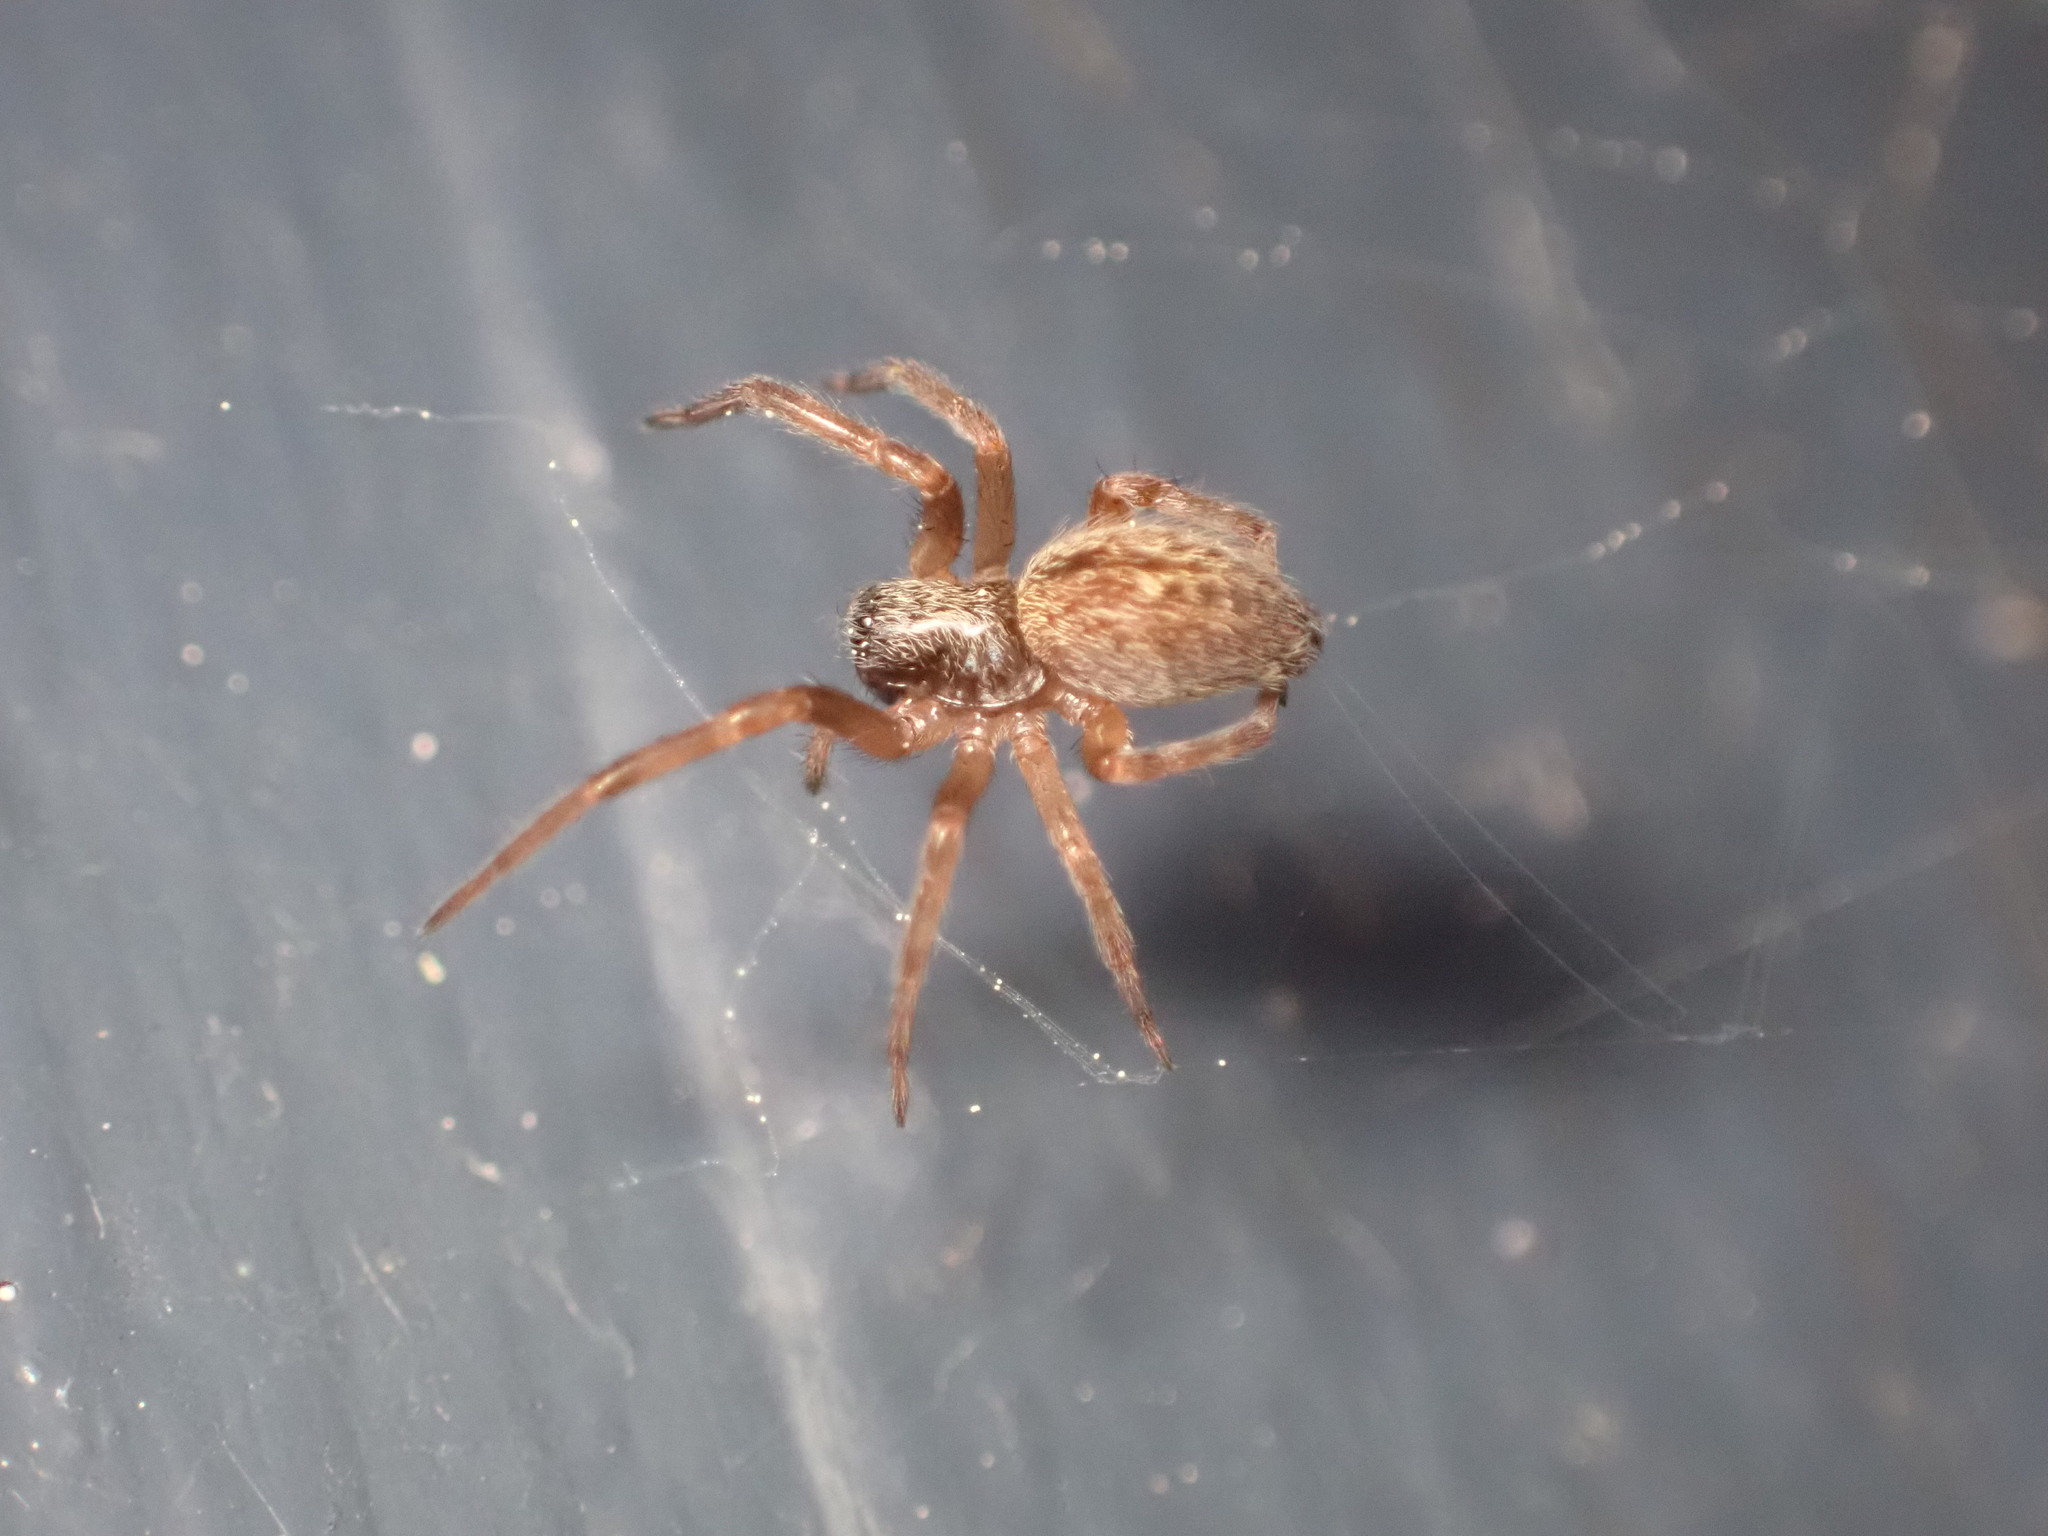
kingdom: Animalia
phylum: Arthropoda
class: Arachnida
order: Araneae
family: Desidae
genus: Badumna
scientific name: Badumna longinqua
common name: Gray house spider
